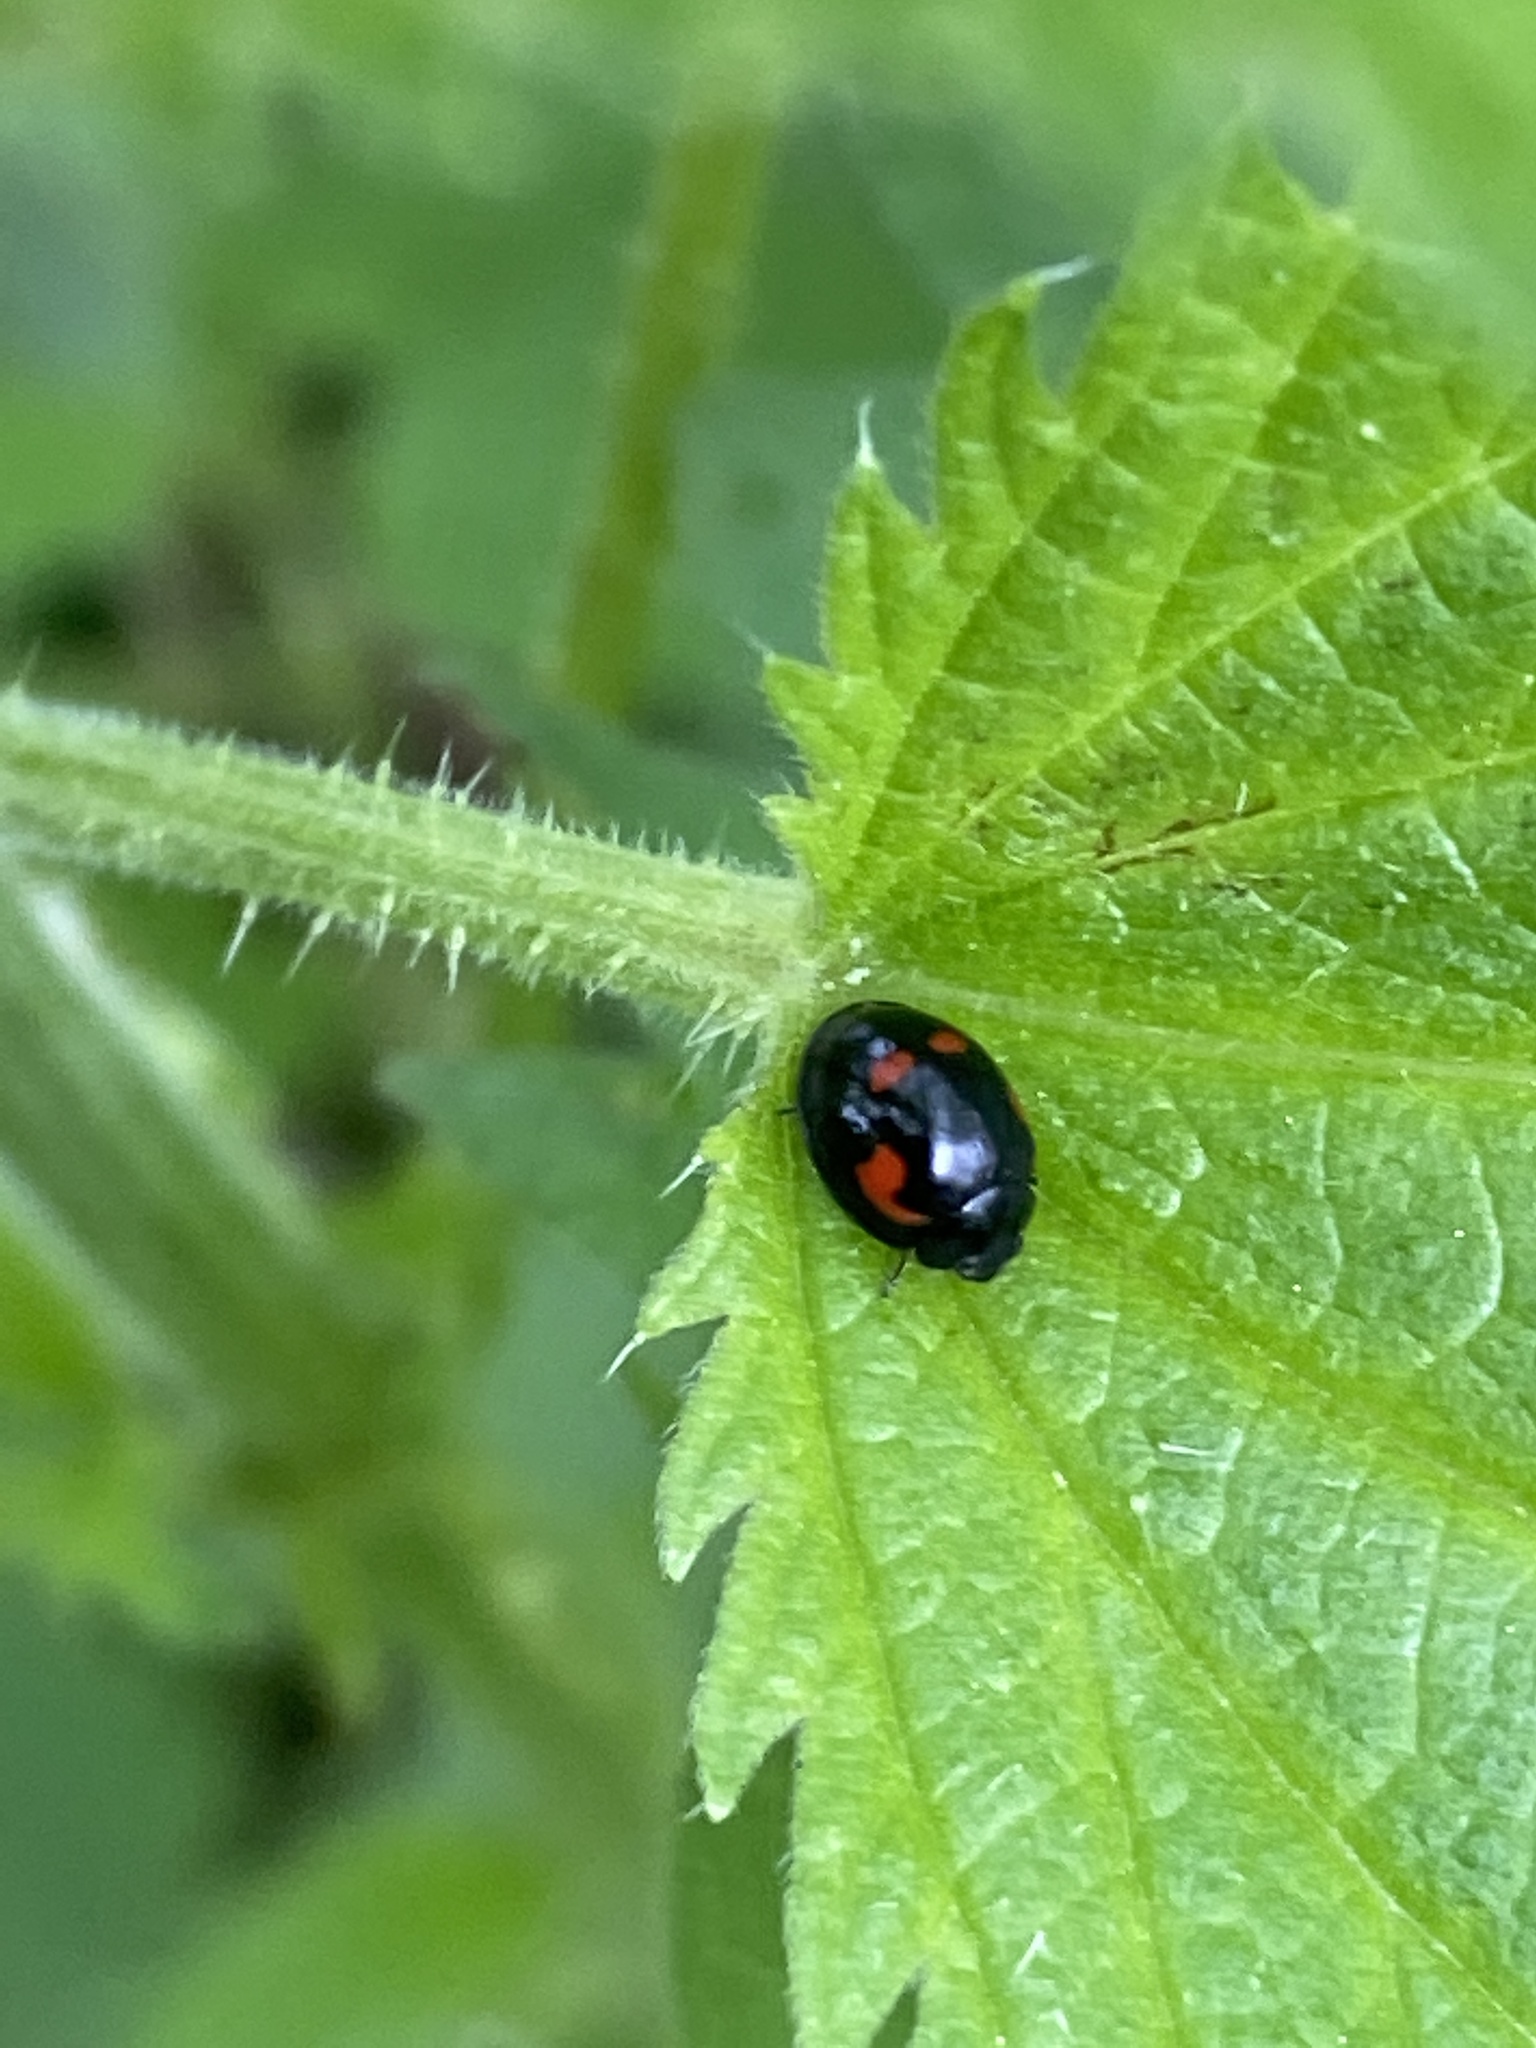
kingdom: Animalia
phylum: Arthropoda
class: Insecta
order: Coleoptera
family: Coccinellidae
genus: Brumus
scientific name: Brumus quadripustulatus
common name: Ladybird beetle
